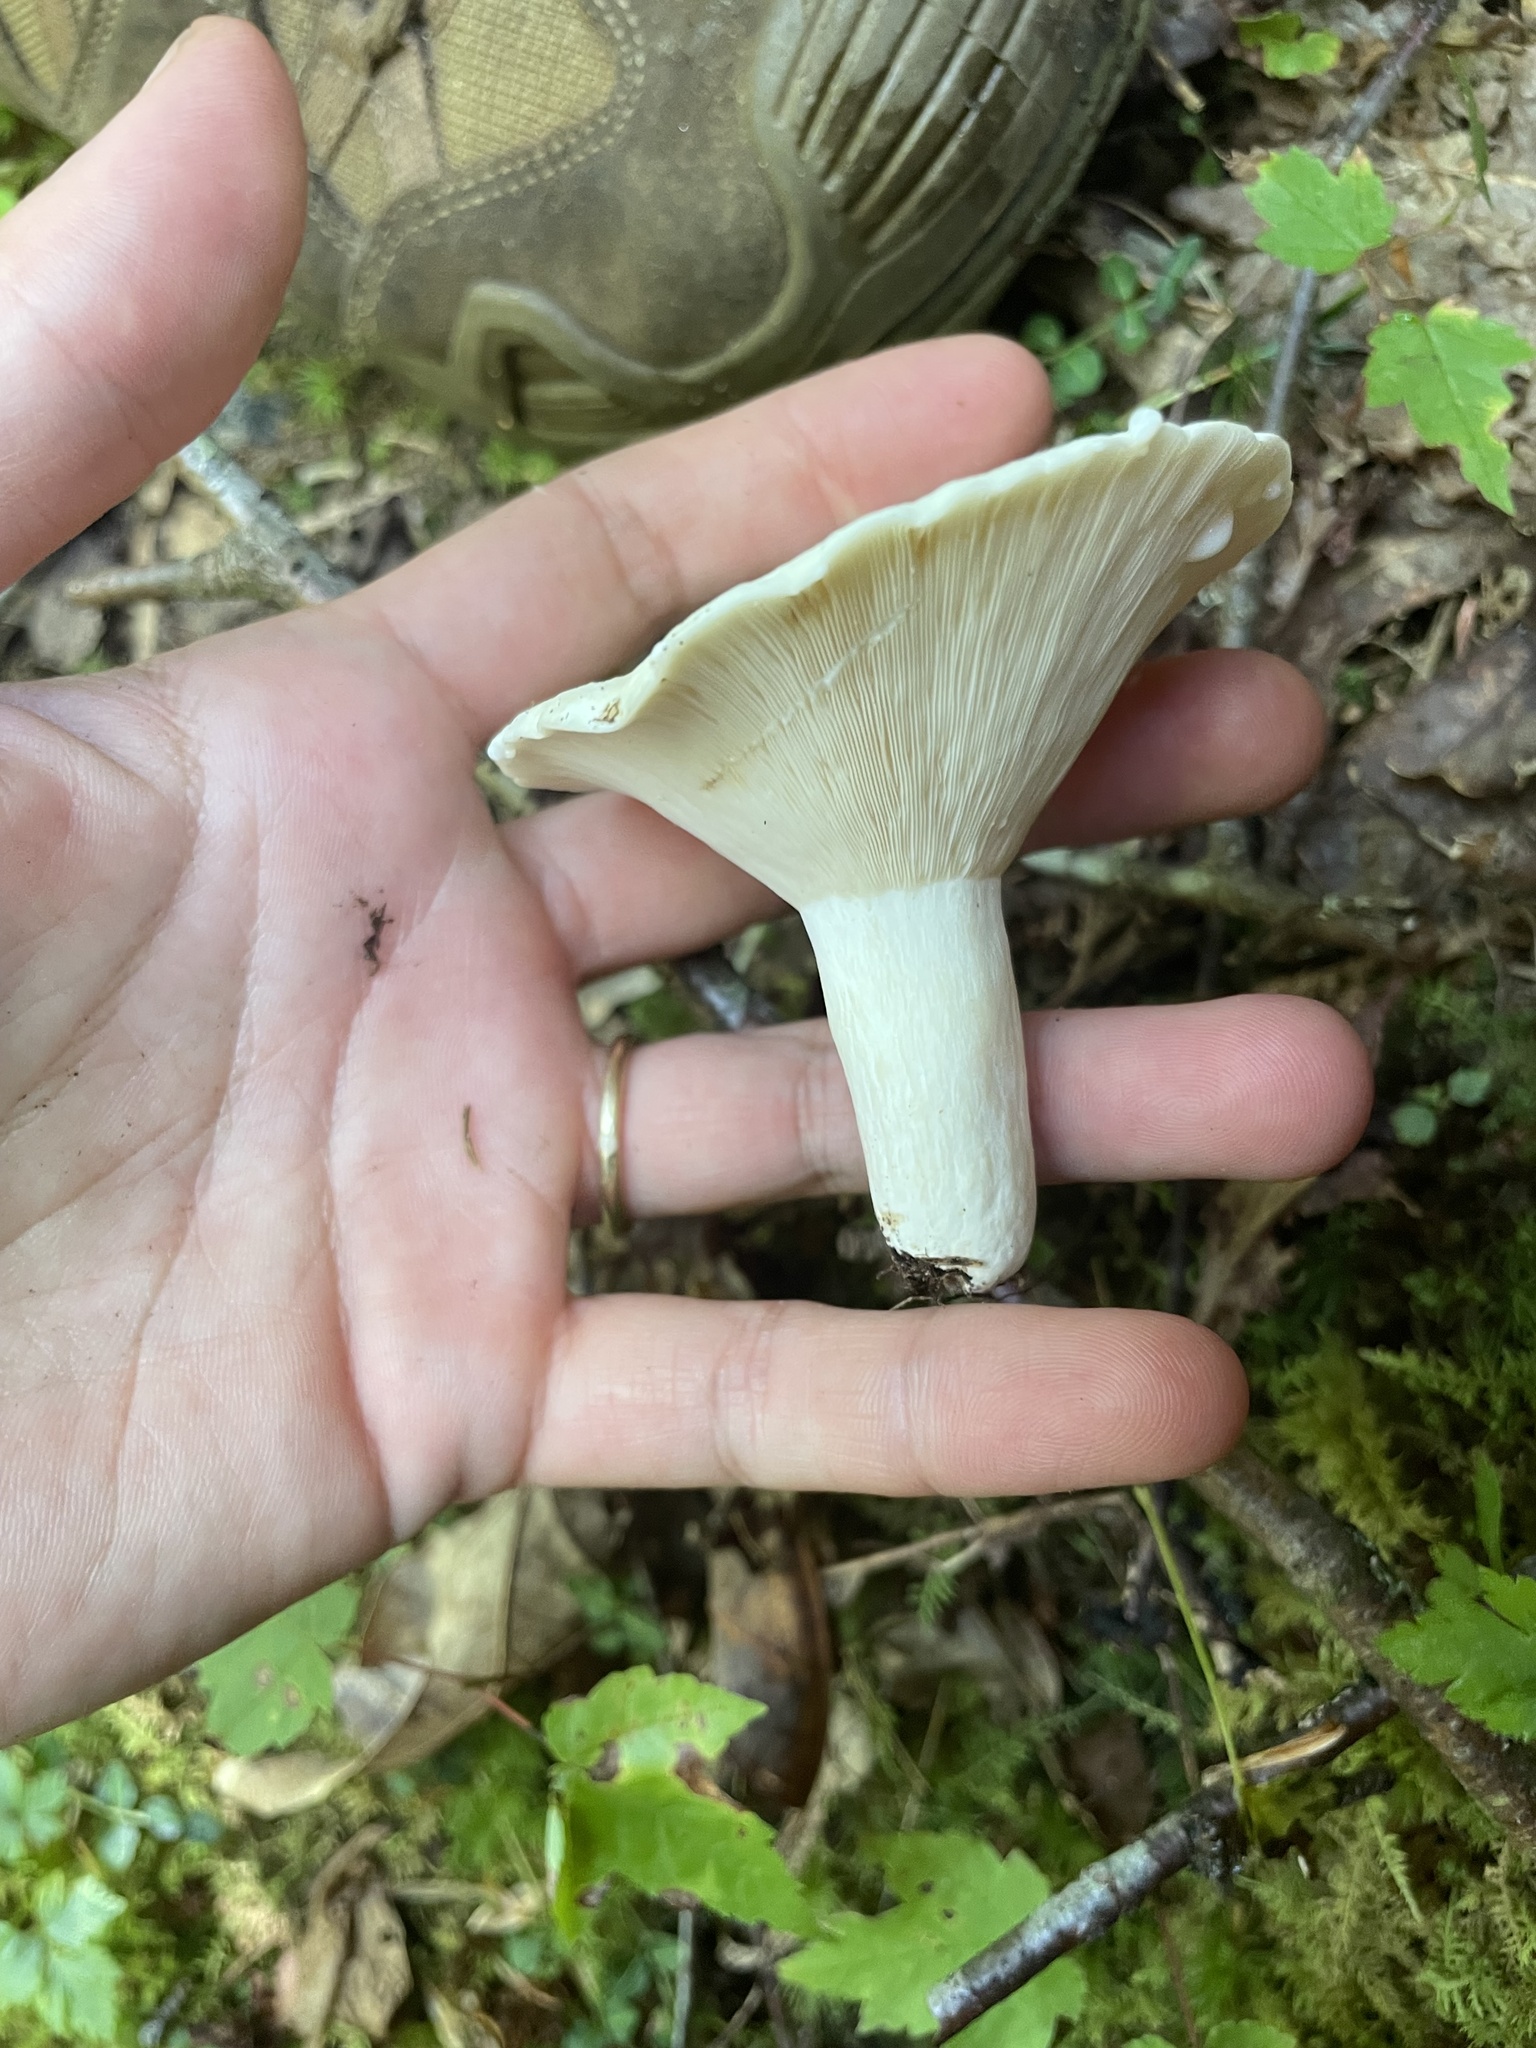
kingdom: Fungi
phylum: Basidiomycota
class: Agaricomycetes
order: Russulales
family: Russulaceae
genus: Lactifluus
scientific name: Lactifluus glaucescens
